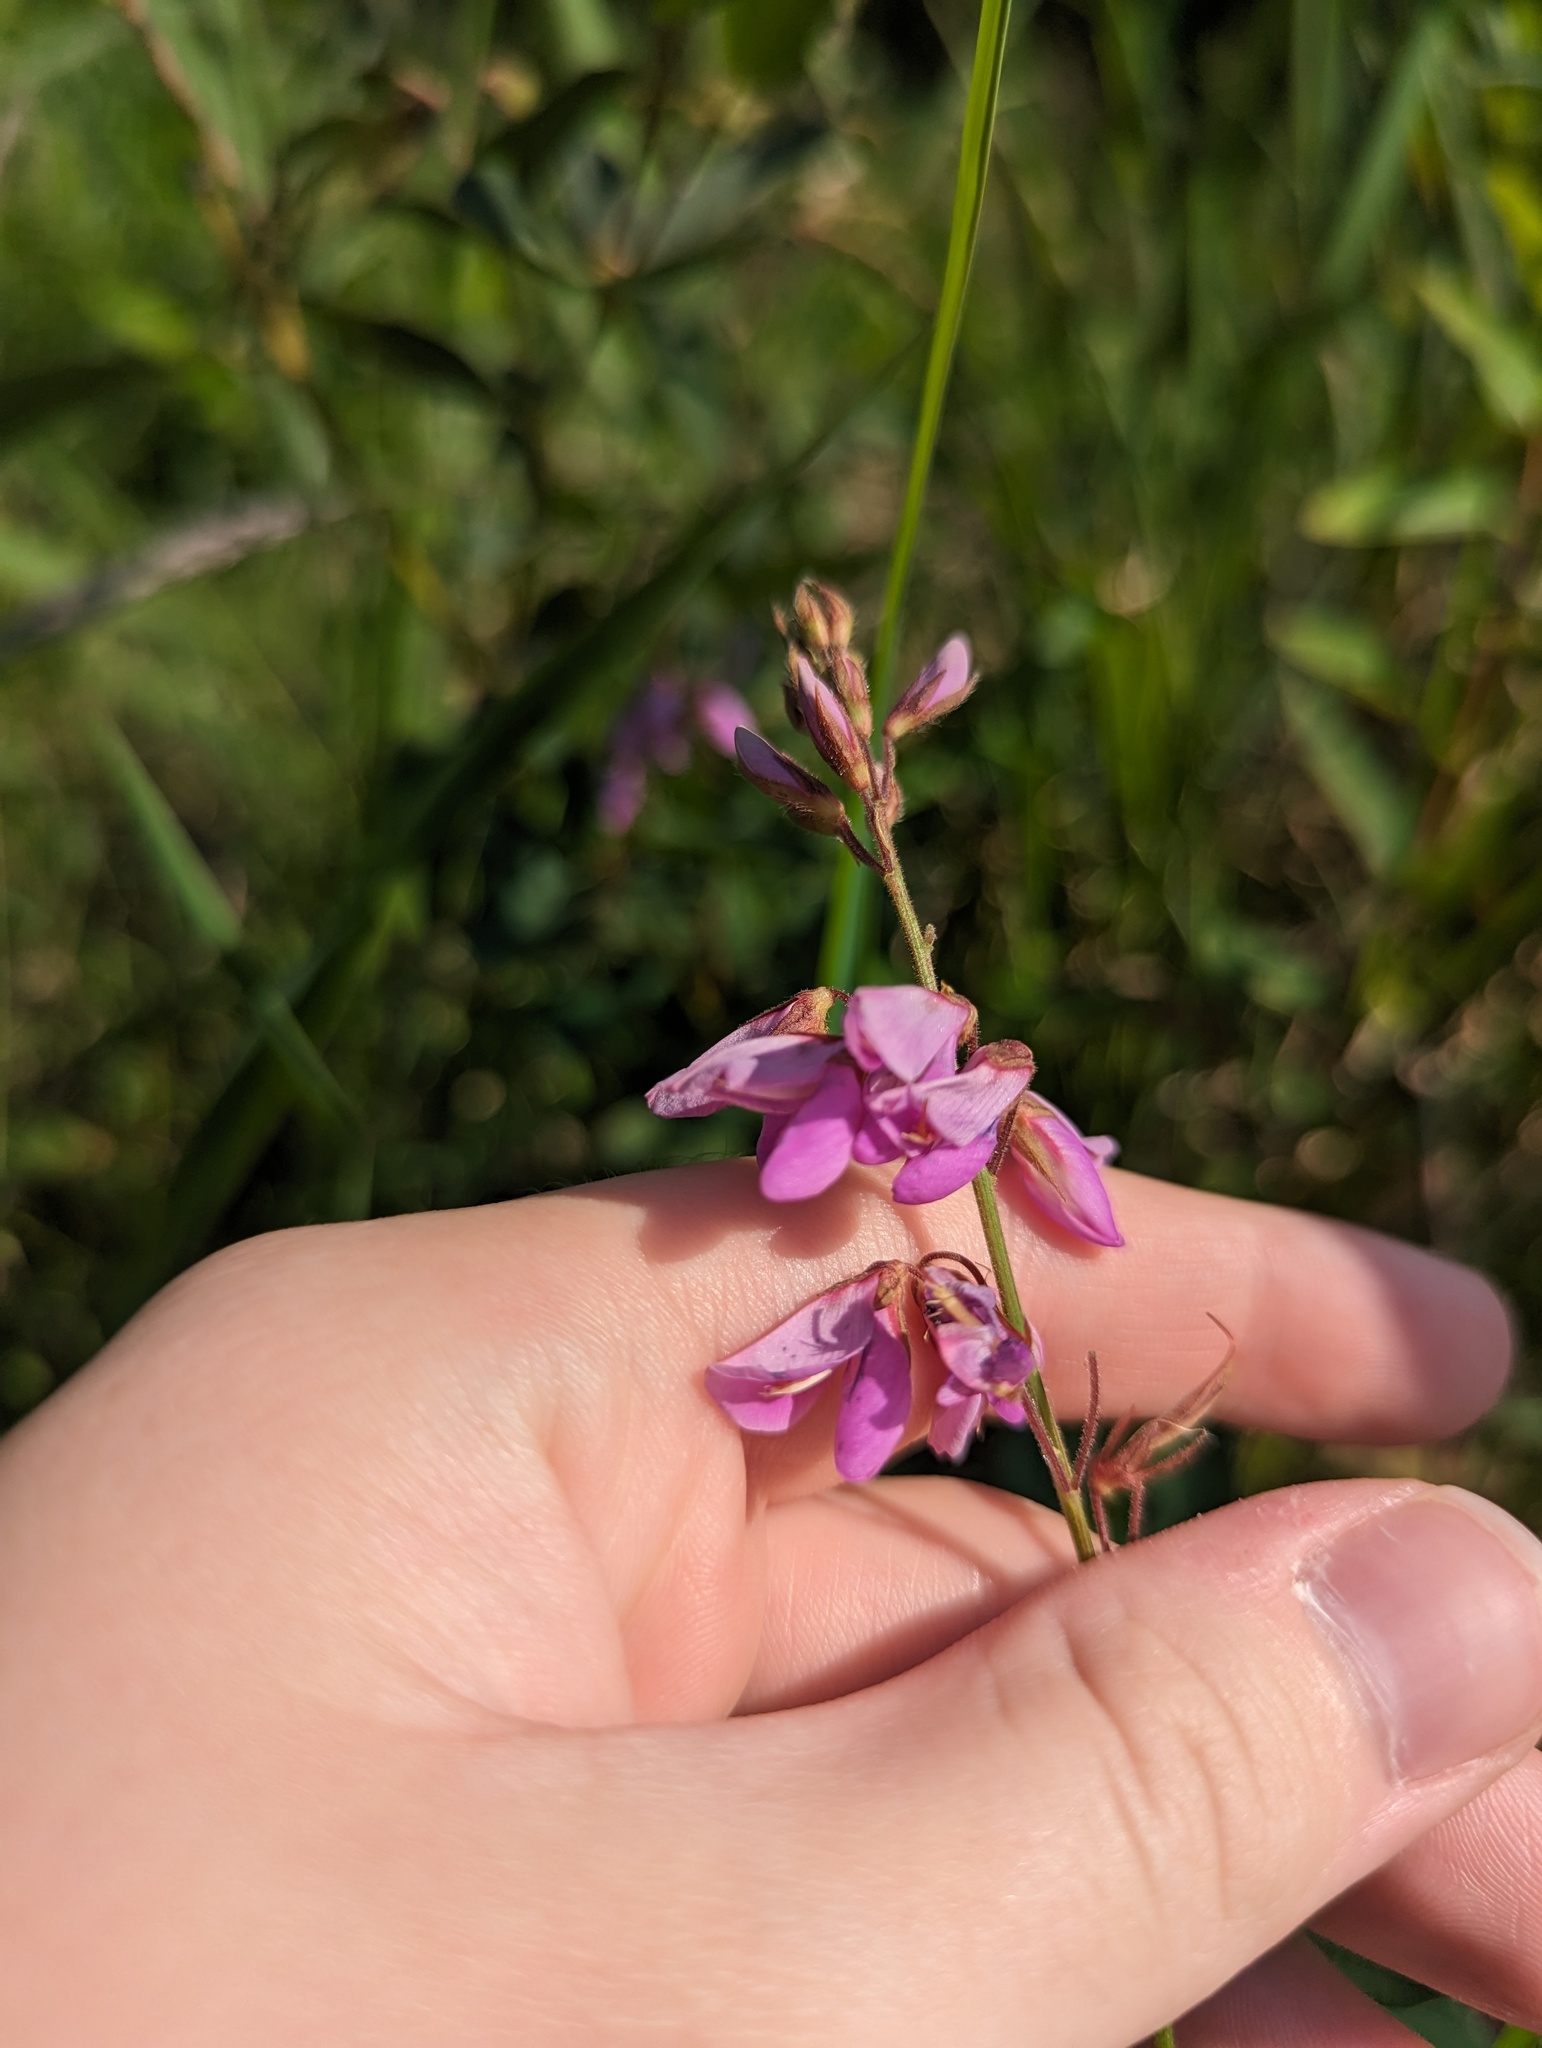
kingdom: Plantae
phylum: Tracheophyta
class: Magnoliopsida
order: Fabales
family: Fabaceae
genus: Desmodium
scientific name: Desmodium canadense
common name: Canada tick-trefoil
